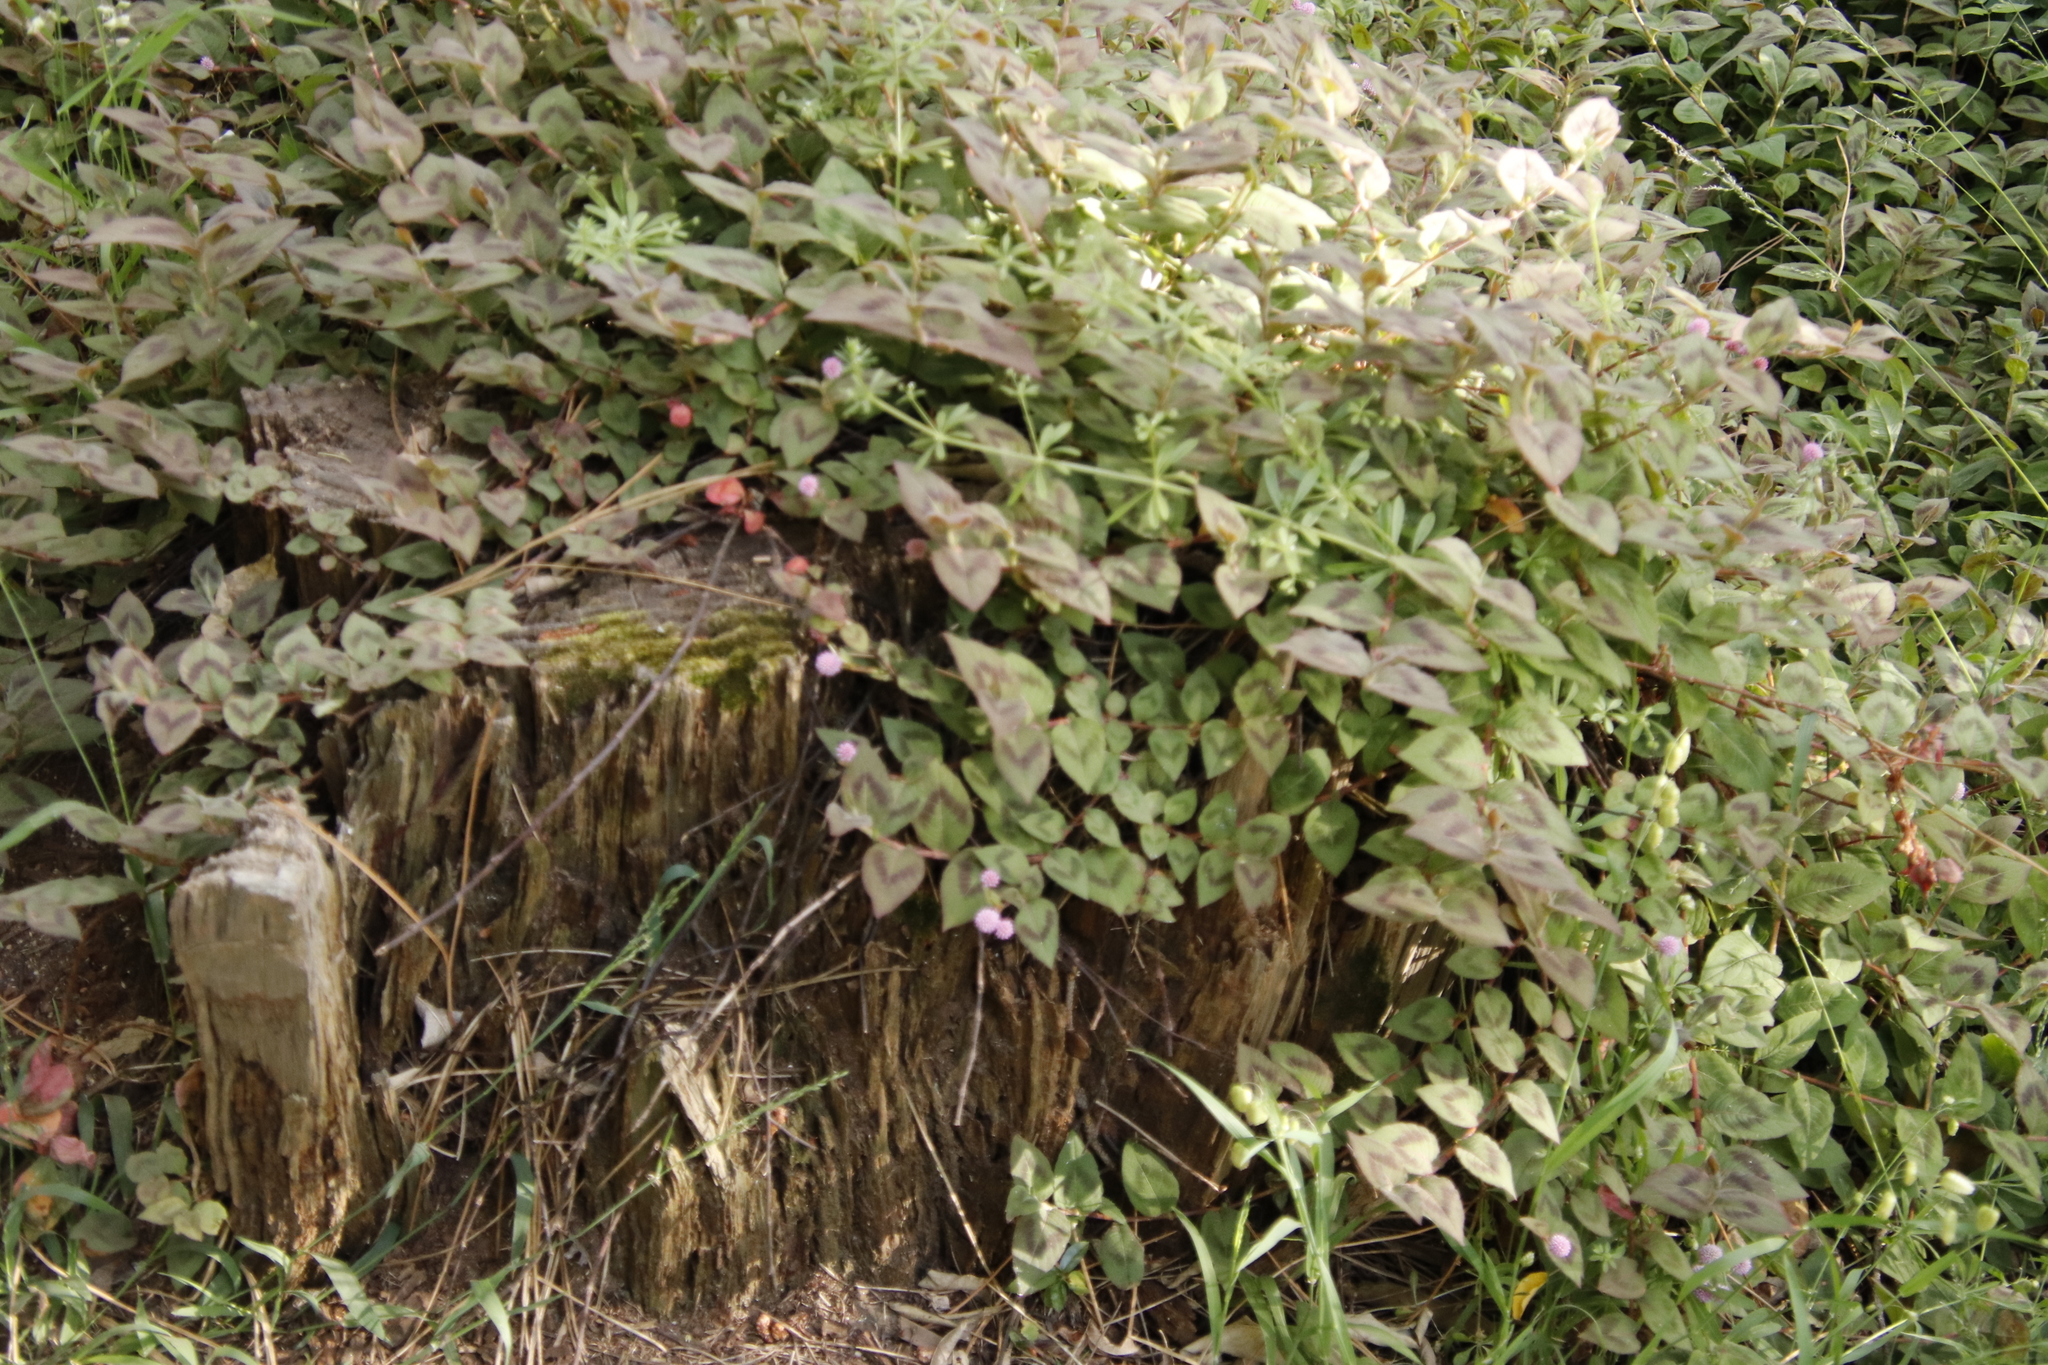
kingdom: Plantae
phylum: Tracheophyta
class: Magnoliopsida
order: Caryophyllales
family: Polygonaceae
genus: Persicaria
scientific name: Persicaria capitata
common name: Pinkhead smartweed
